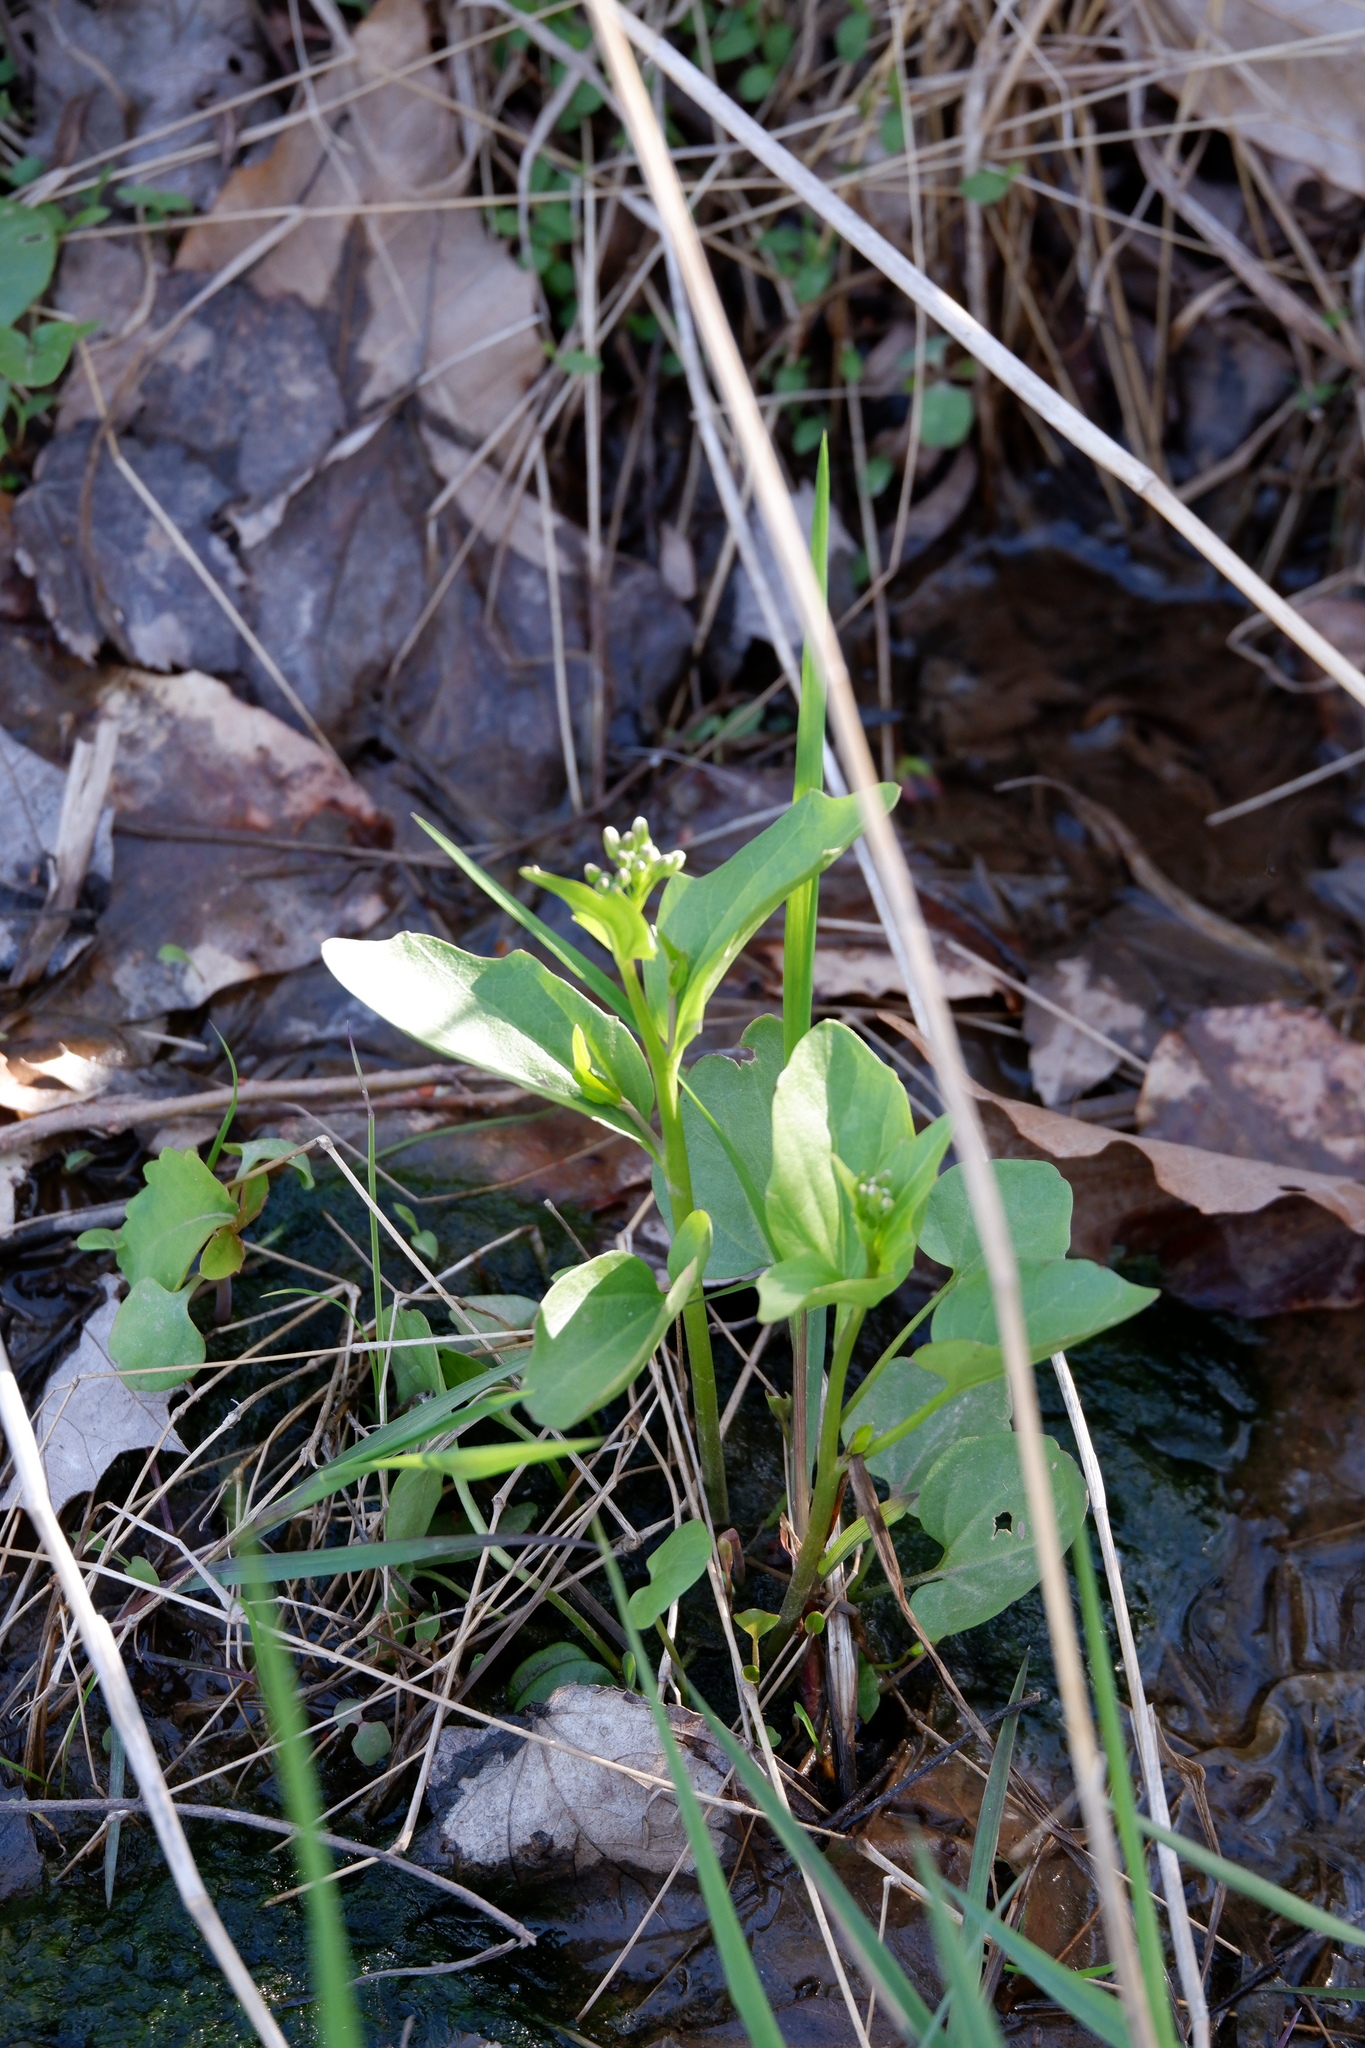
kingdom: Plantae
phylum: Tracheophyta
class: Magnoliopsida
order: Brassicales
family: Brassicaceae
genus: Cardamine
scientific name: Cardamine bulbosa
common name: Spring cress
